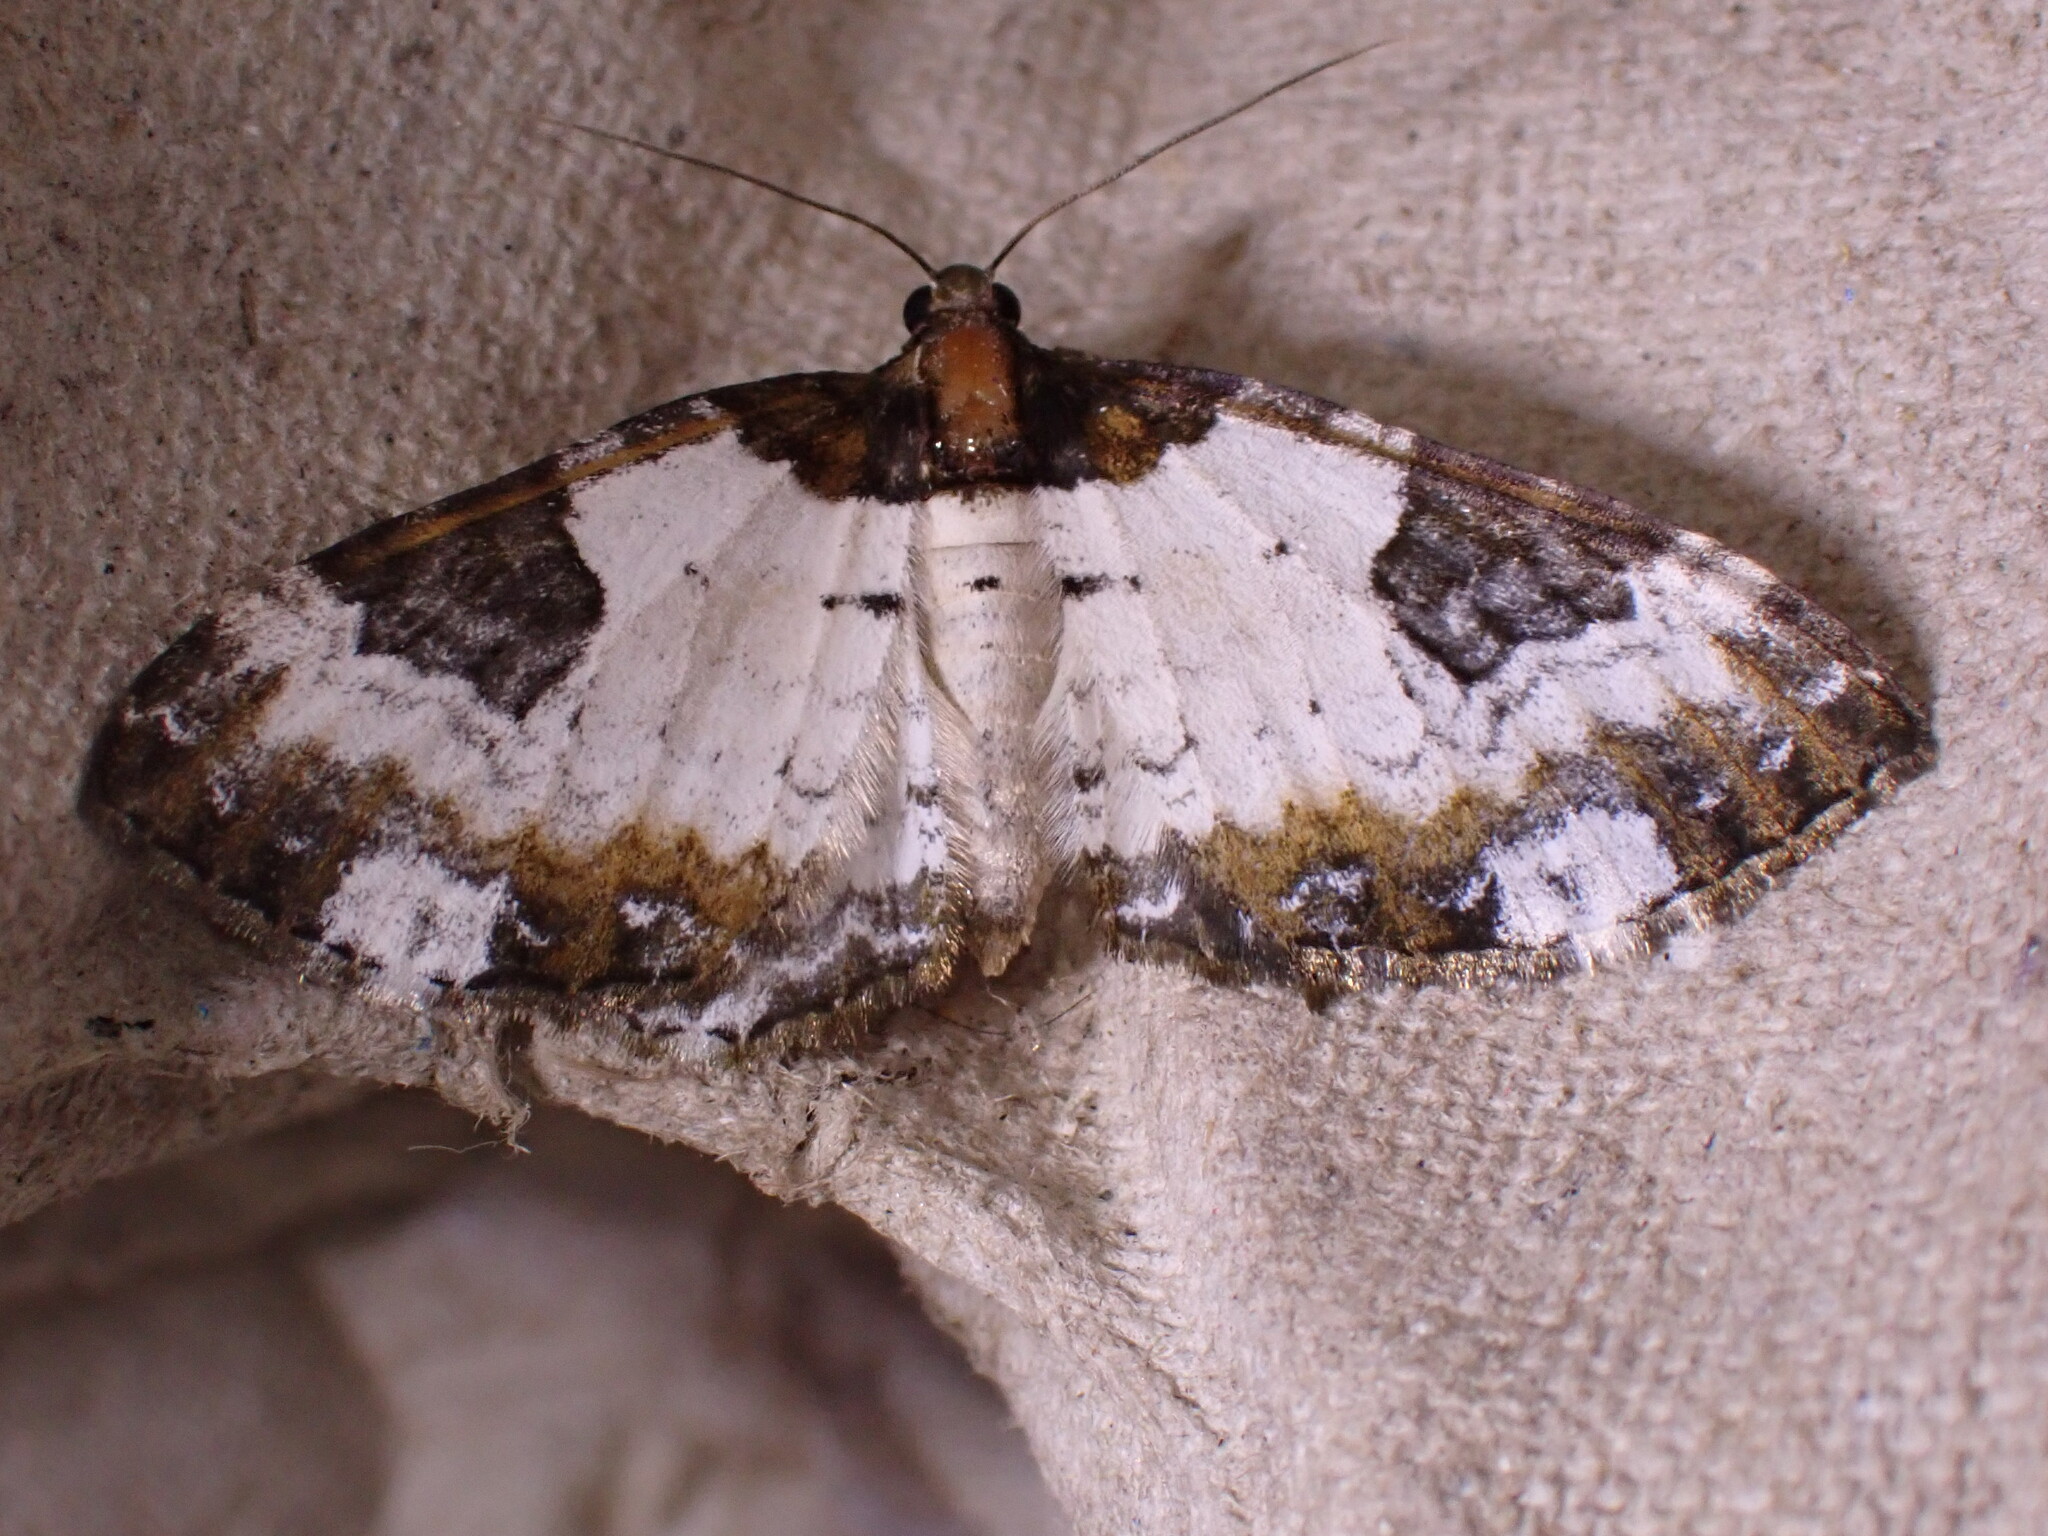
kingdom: Animalia
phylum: Arthropoda
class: Insecta
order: Lepidoptera
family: Geometridae
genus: Melanthia
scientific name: Melanthia procellata
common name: Pretty chalk carpet
